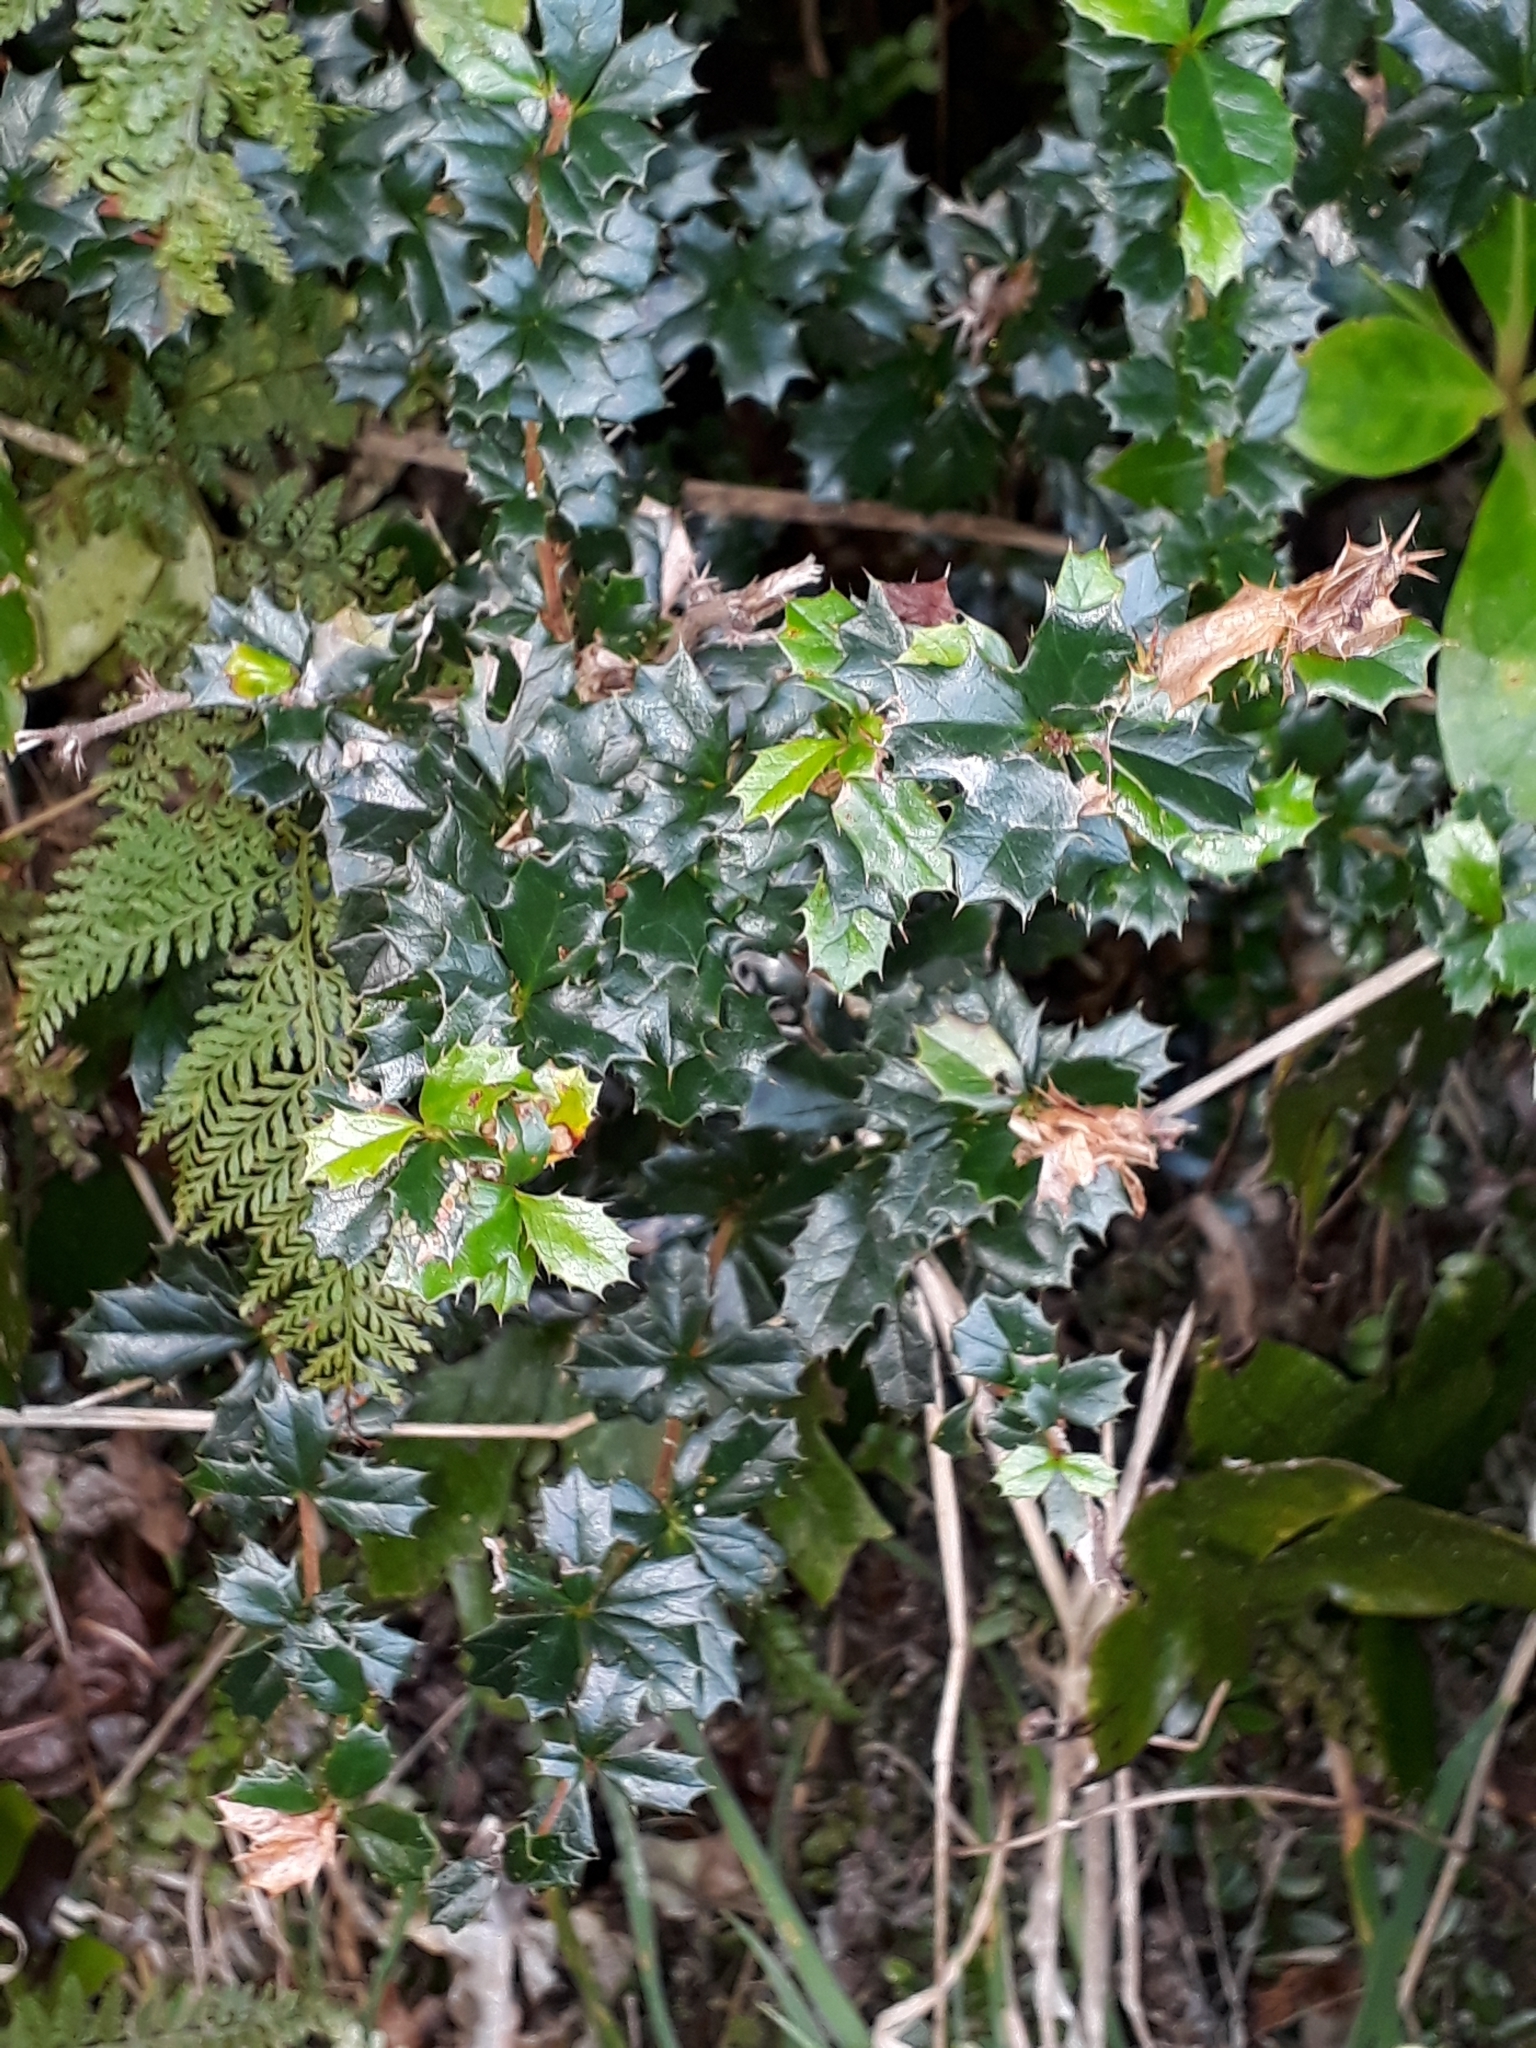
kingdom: Plantae
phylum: Tracheophyta
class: Magnoliopsida
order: Ranunculales
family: Berberidaceae
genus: Berberis
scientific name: Berberis darwinii
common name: Darwin's barberry
